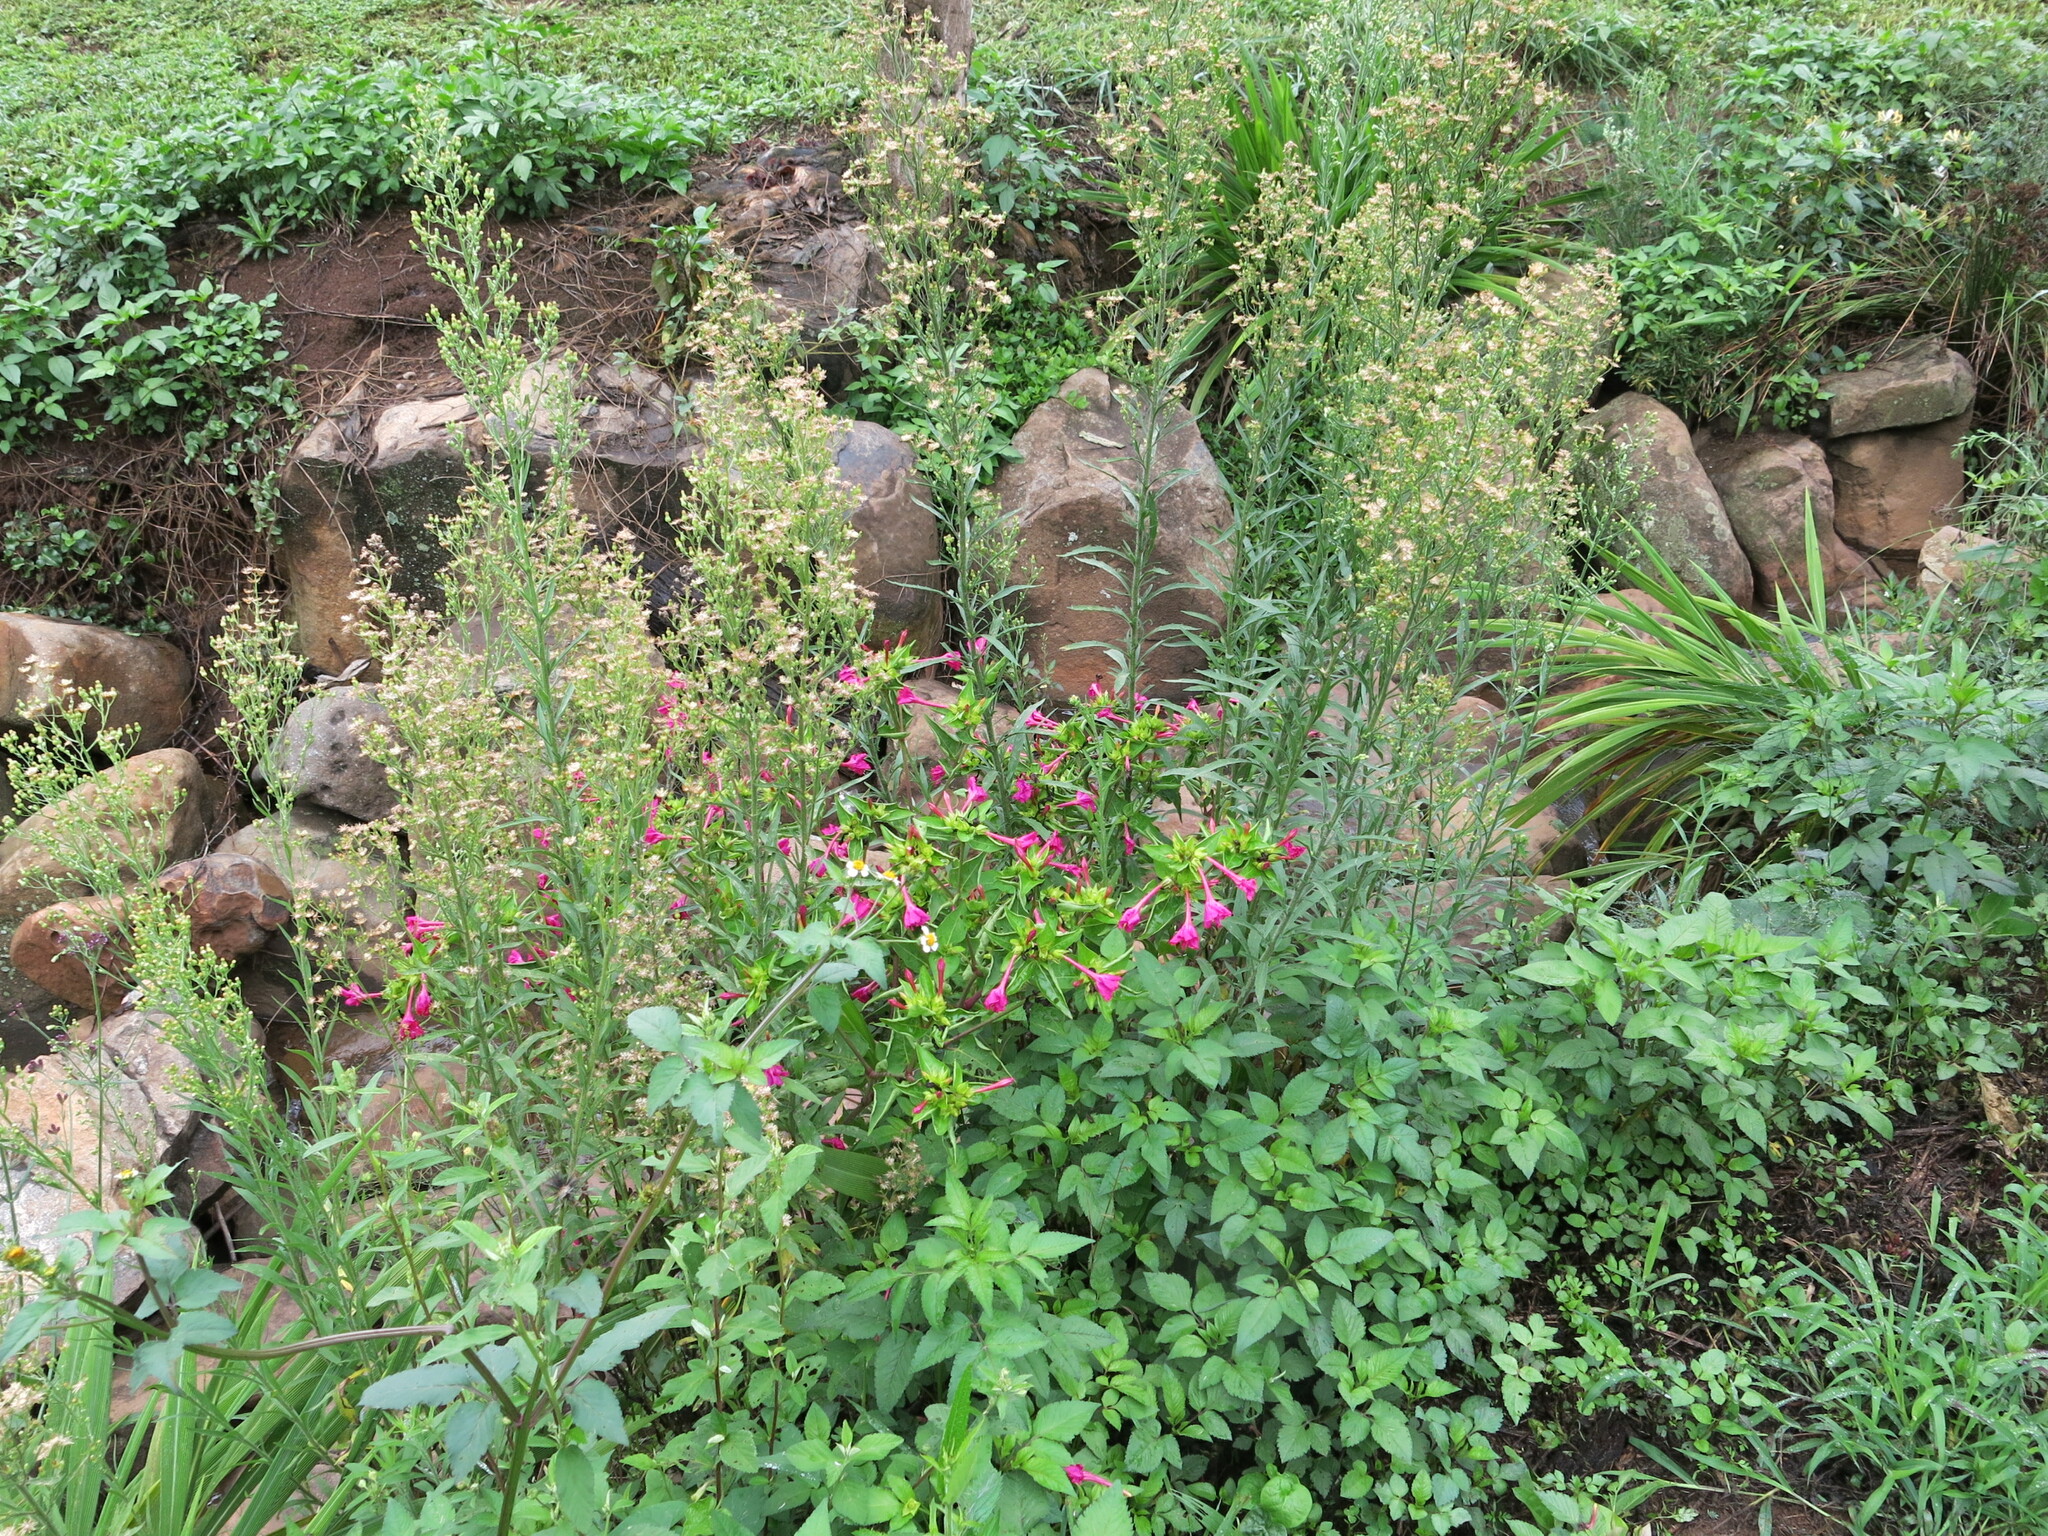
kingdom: Plantae
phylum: Tracheophyta
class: Magnoliopsida
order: Caryophyllales
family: Nyctaginaceae
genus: Mirabilis
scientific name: Mirabilis jalapa
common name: Marvel-of-peru
